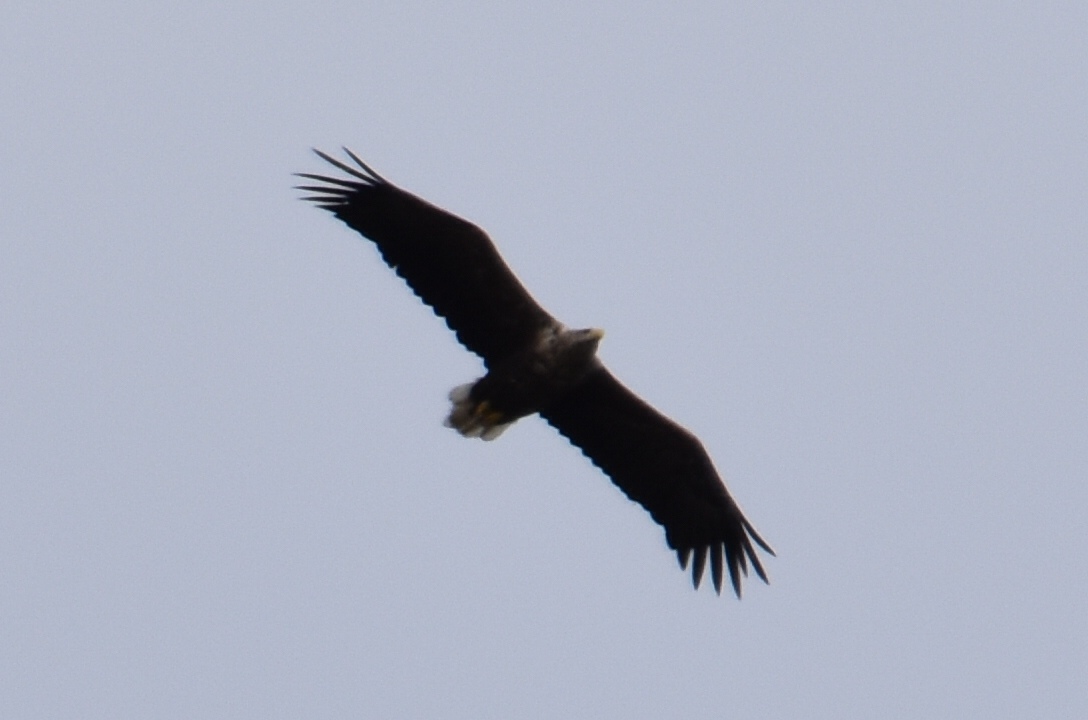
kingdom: Animalia
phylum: Chordata
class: Aves
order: Accipitriformes
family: Accipitridae
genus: Haliaeetus
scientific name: Haliaeetus albicilla
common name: White-tailed eagle
